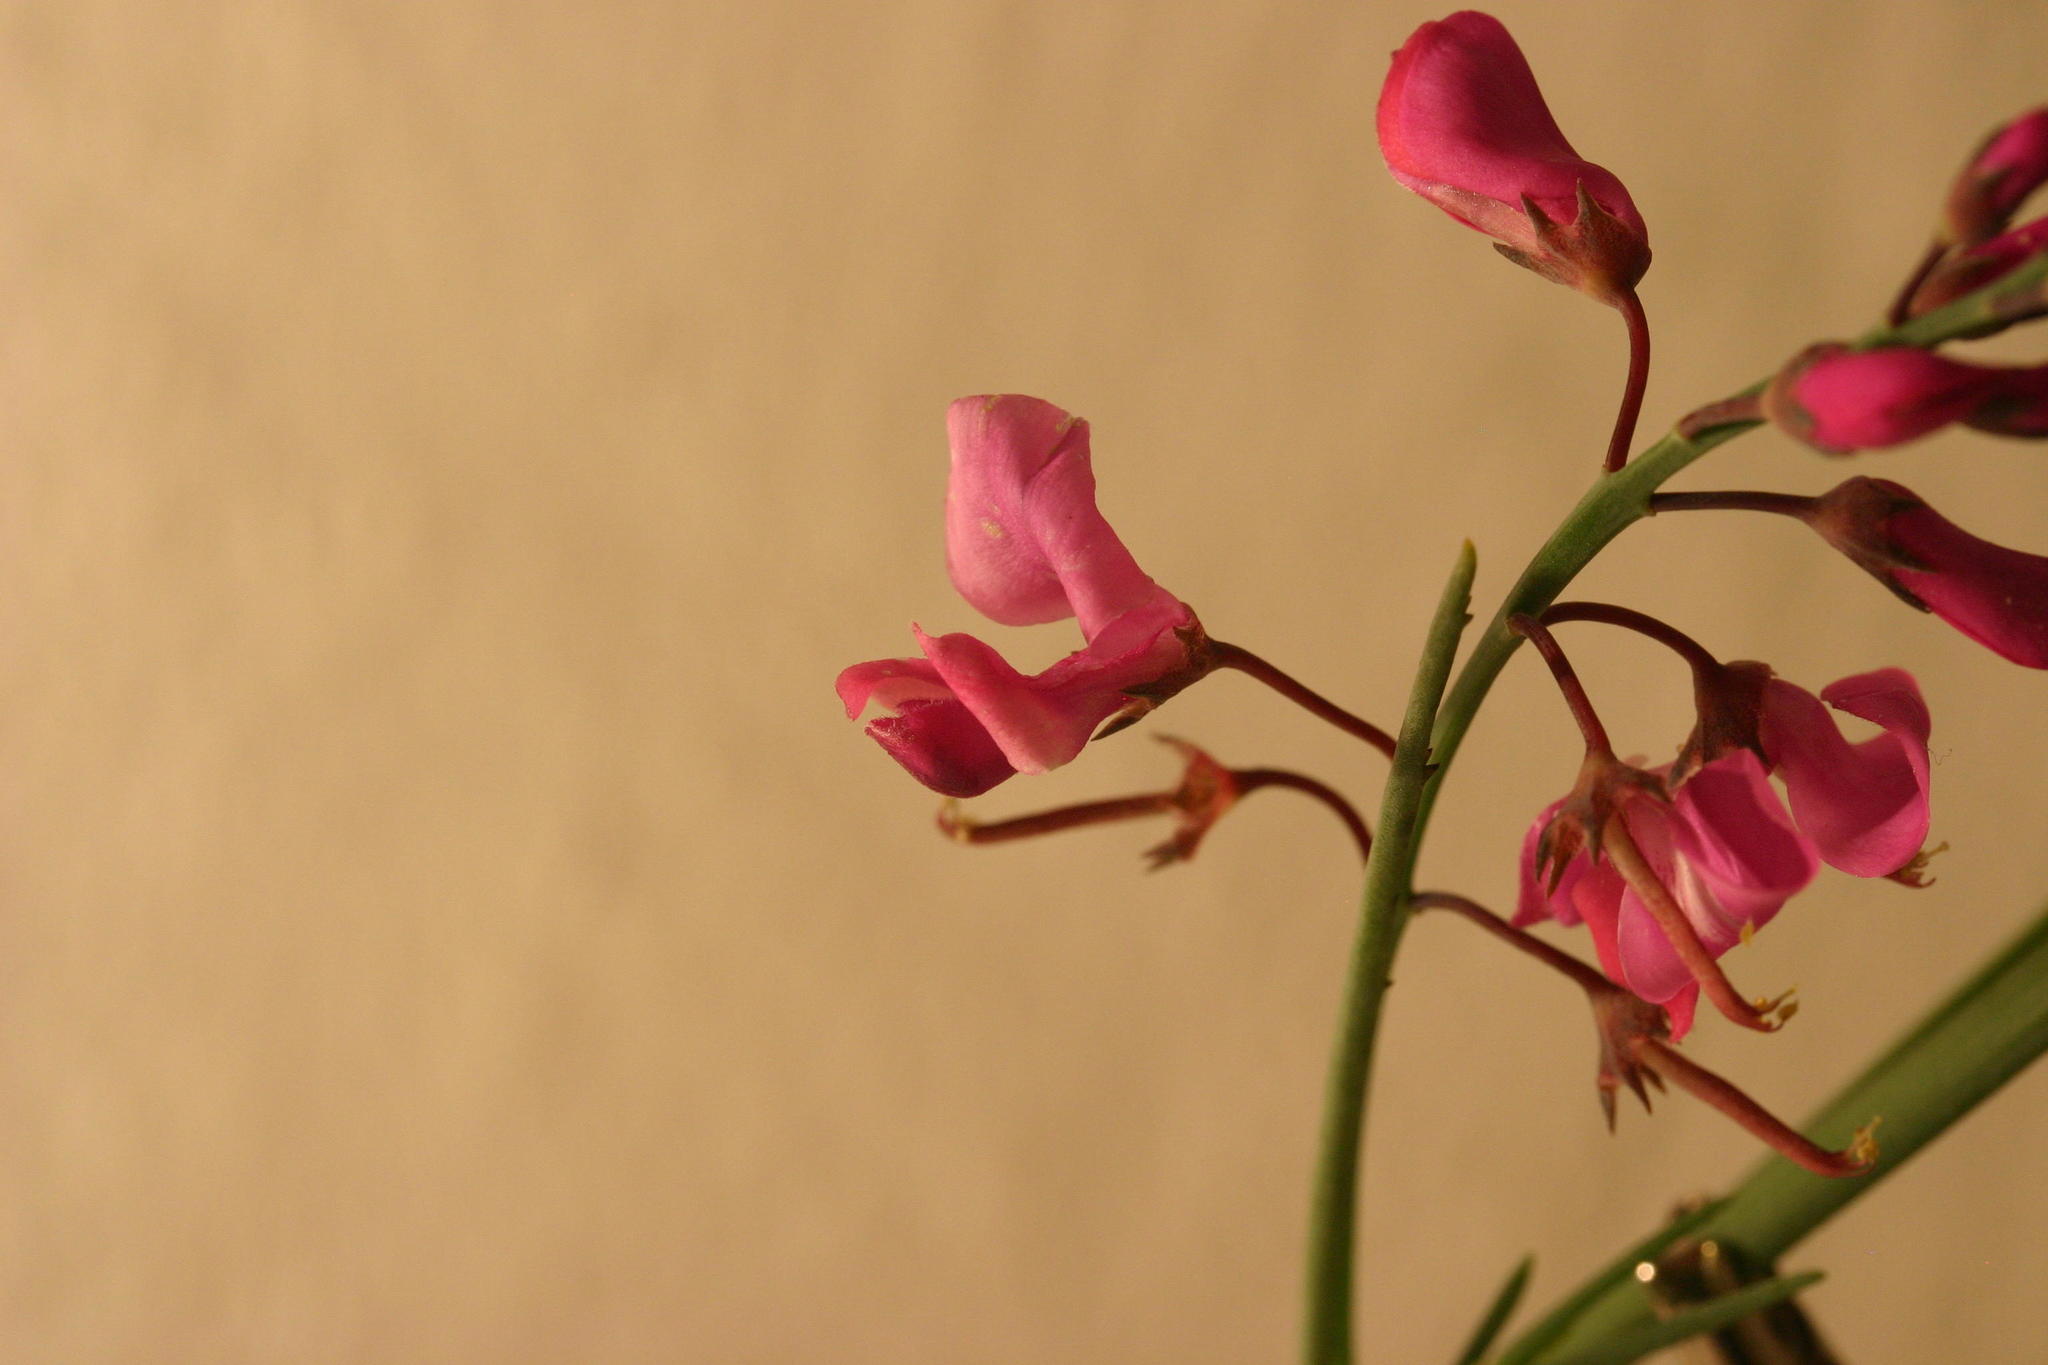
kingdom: Plantae
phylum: Tracheophyta
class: Magnoliopsida
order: Fabales
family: Fabaceae
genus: Indigofera
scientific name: Indigofera filifolia
